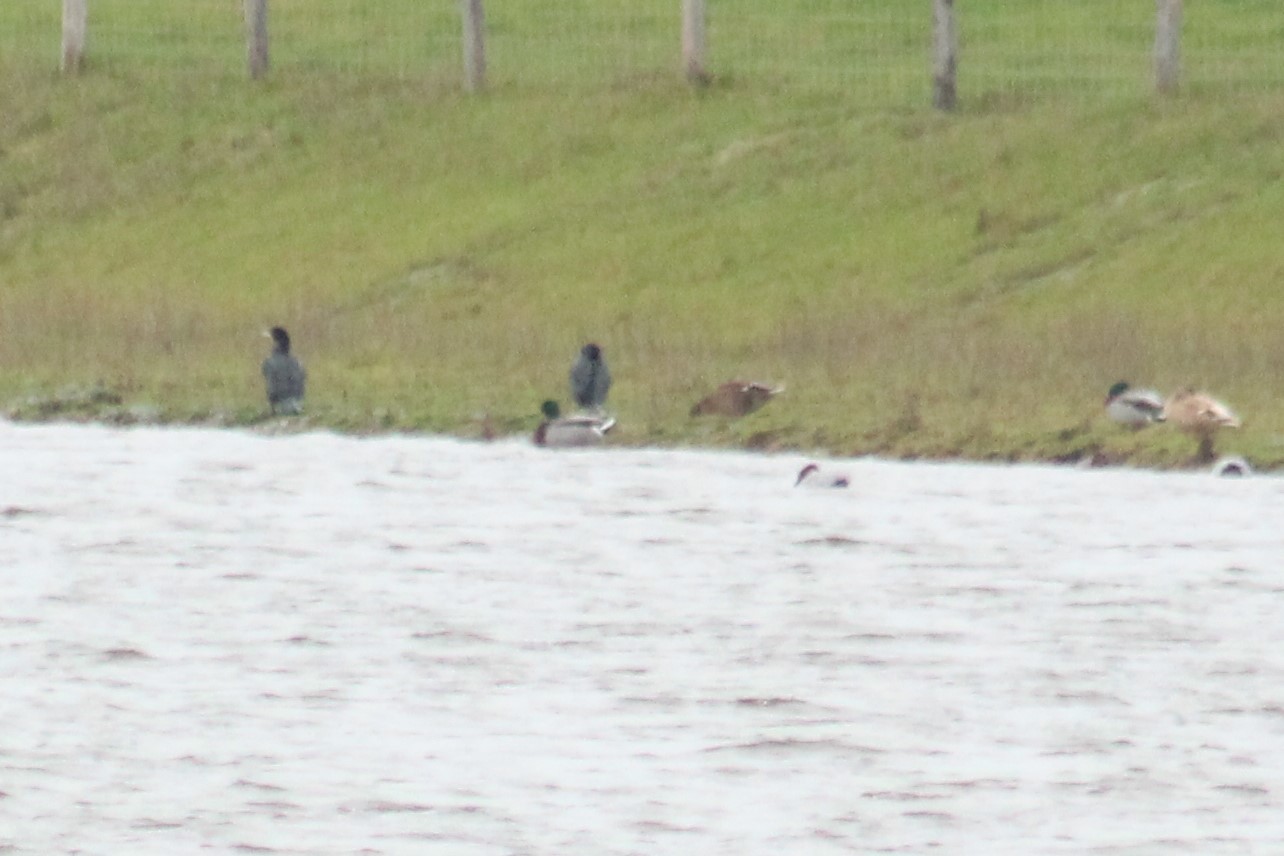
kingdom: Animalia
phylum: Chordata
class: Aves
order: Anseriformes
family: Anatidae
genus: Anas
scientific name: Anas platyrhynchos
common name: Mallard
